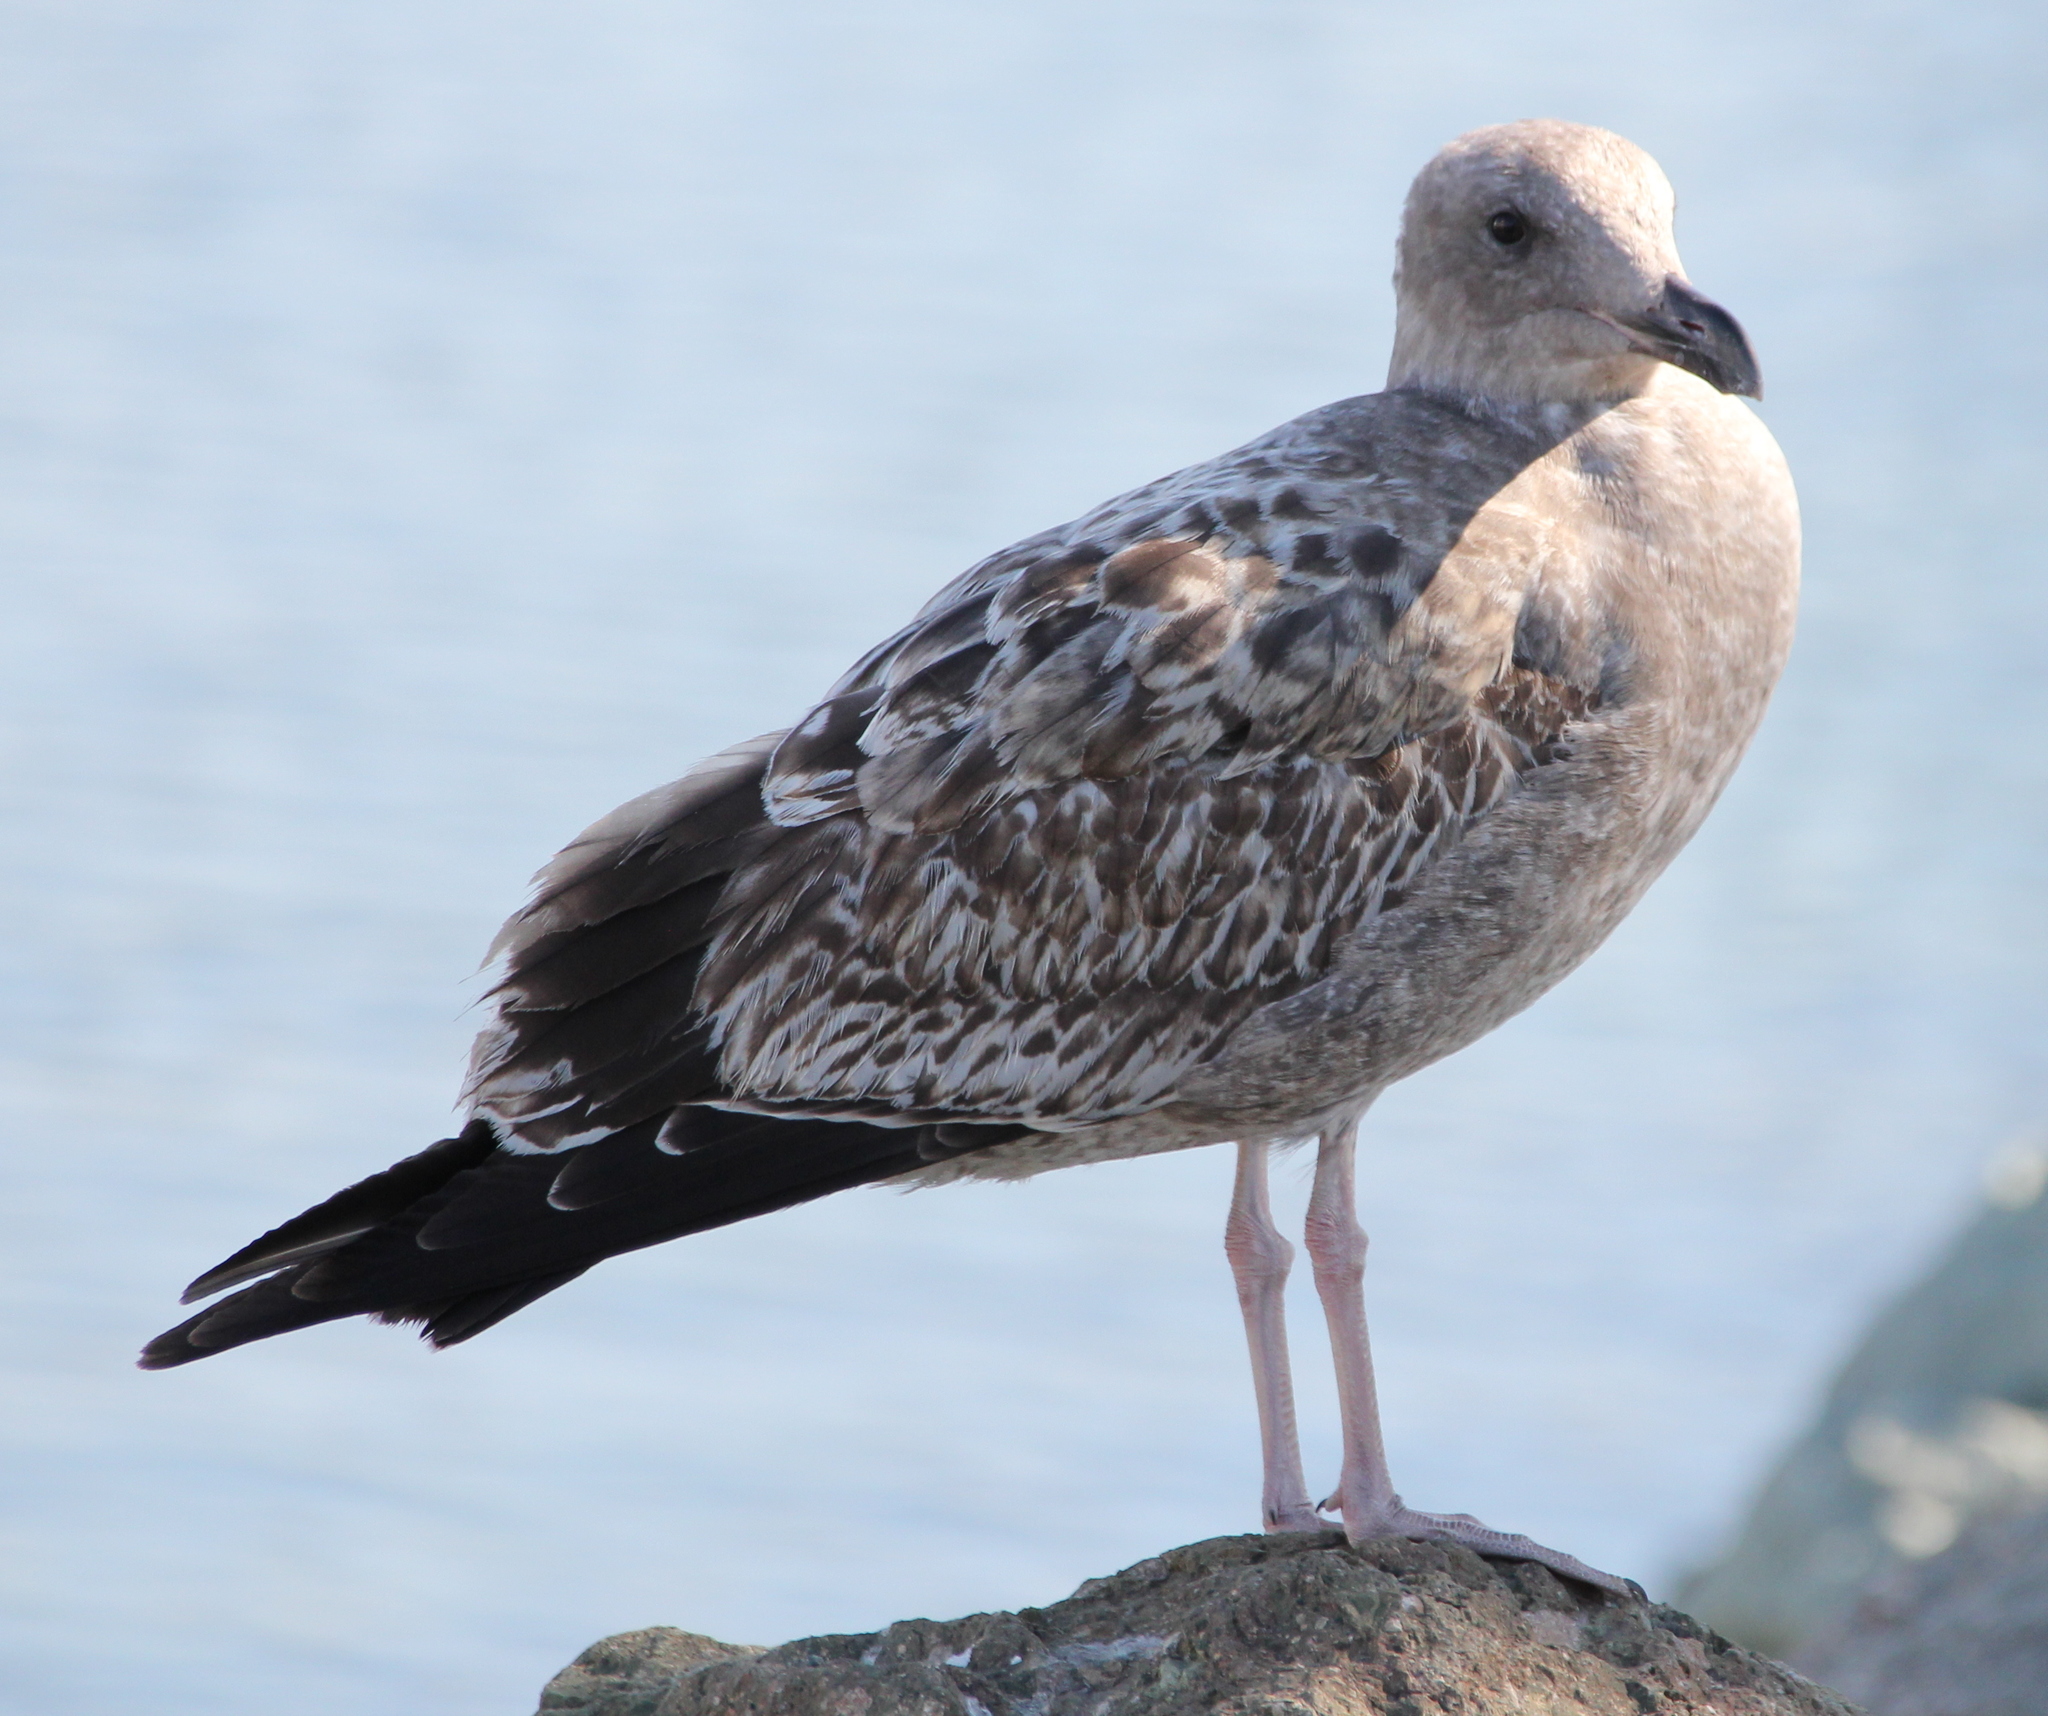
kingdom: Animalia
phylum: Chordata
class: Aves
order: Charadriiformes
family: Laridae
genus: Larus
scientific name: Larus occidentalis
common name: Western gull
